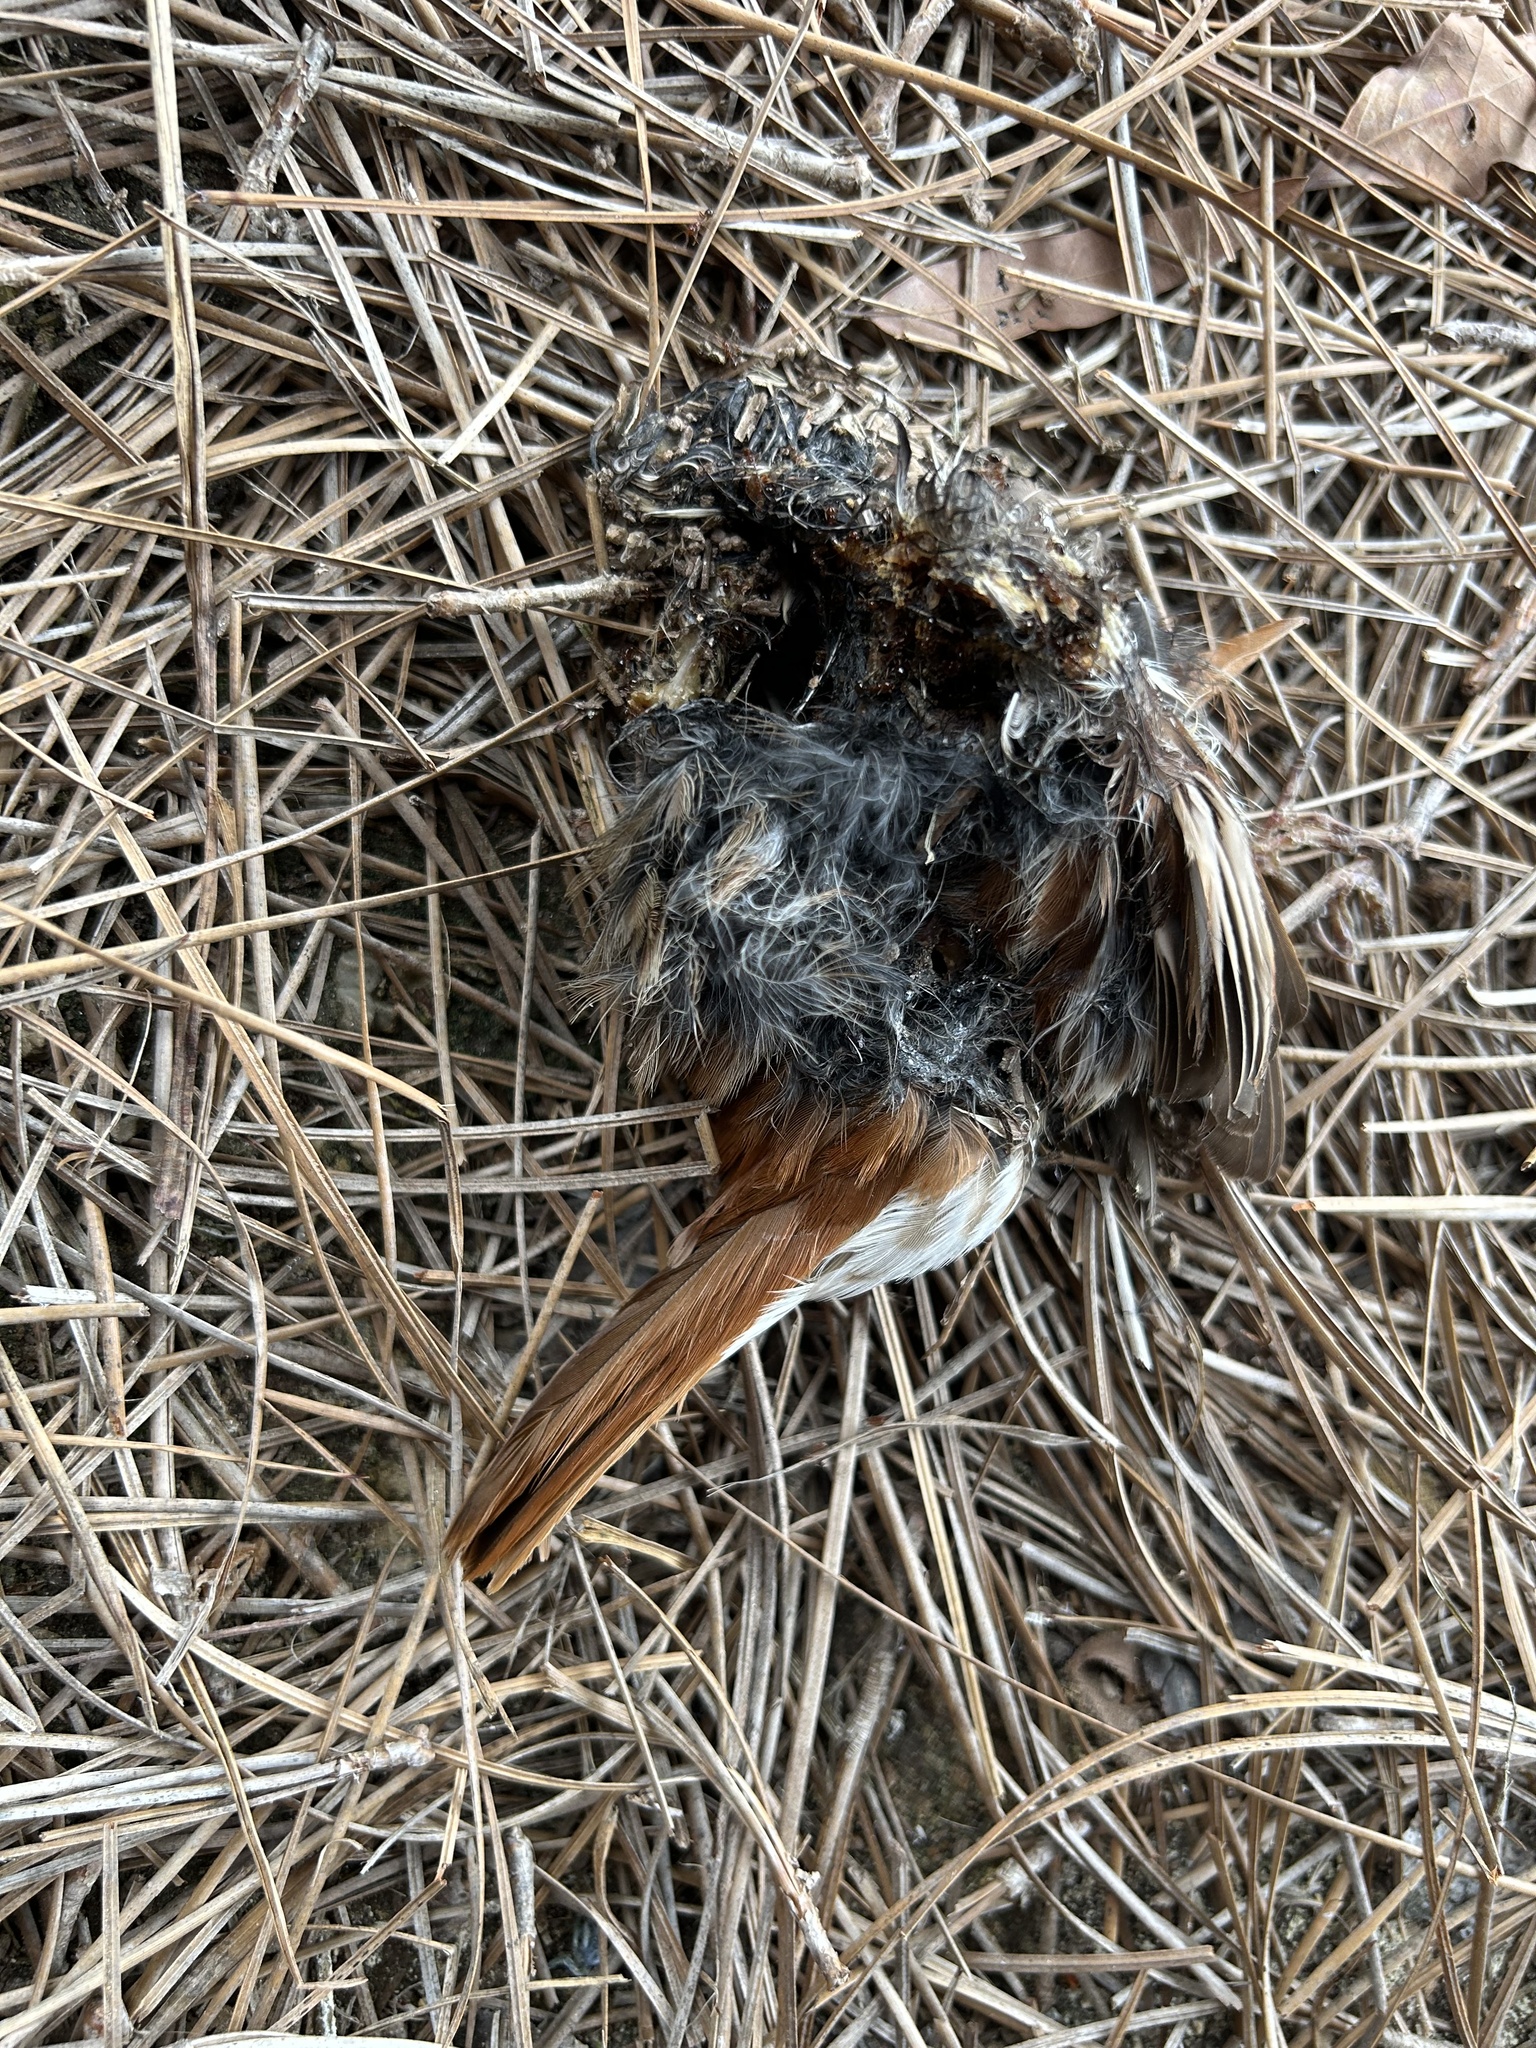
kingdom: Animalia
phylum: Chordata
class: Aves
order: Passeriformes
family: Turdidae
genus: Catharus
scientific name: Catharus guttatus
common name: Hermit thrush
